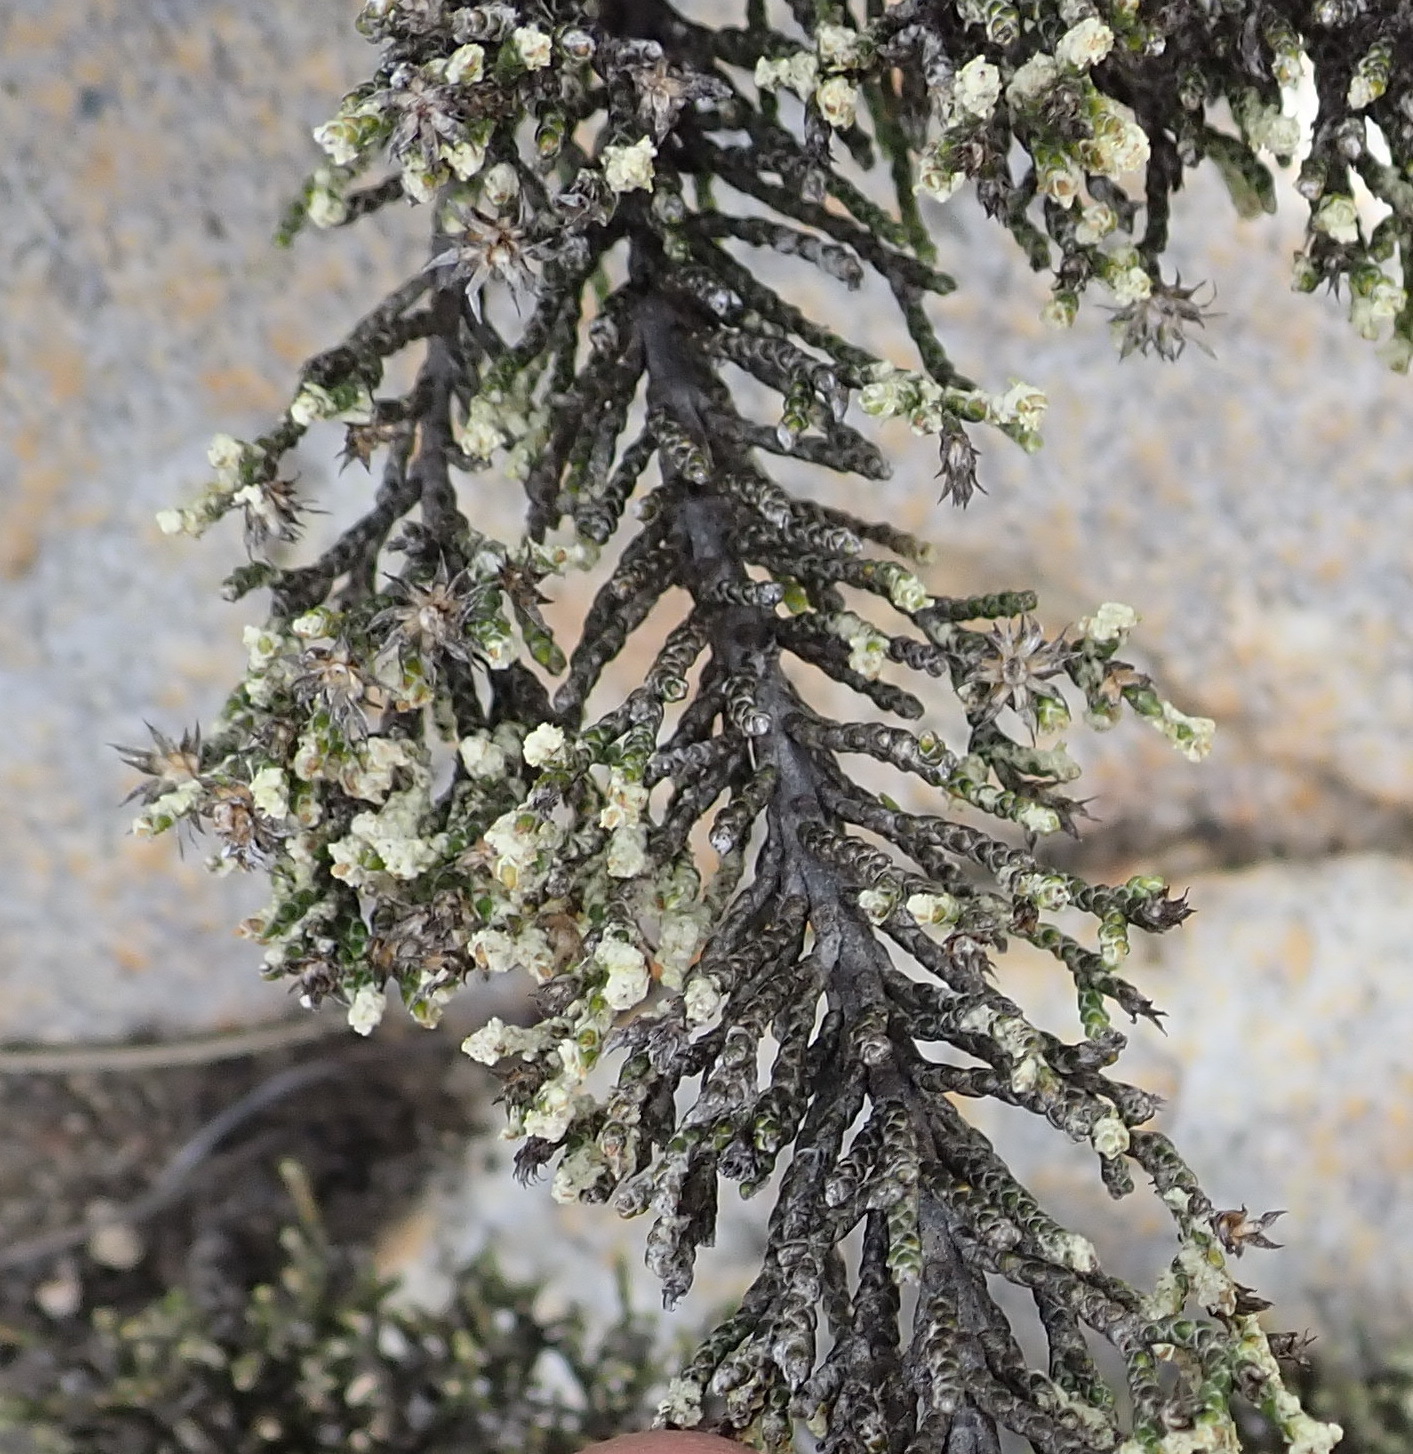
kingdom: Plantae
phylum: Tracheophyta
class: Magnoliopsida
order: Asterales
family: Asteraceae
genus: Dolichothrix
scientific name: Dolichothrix ericoides
